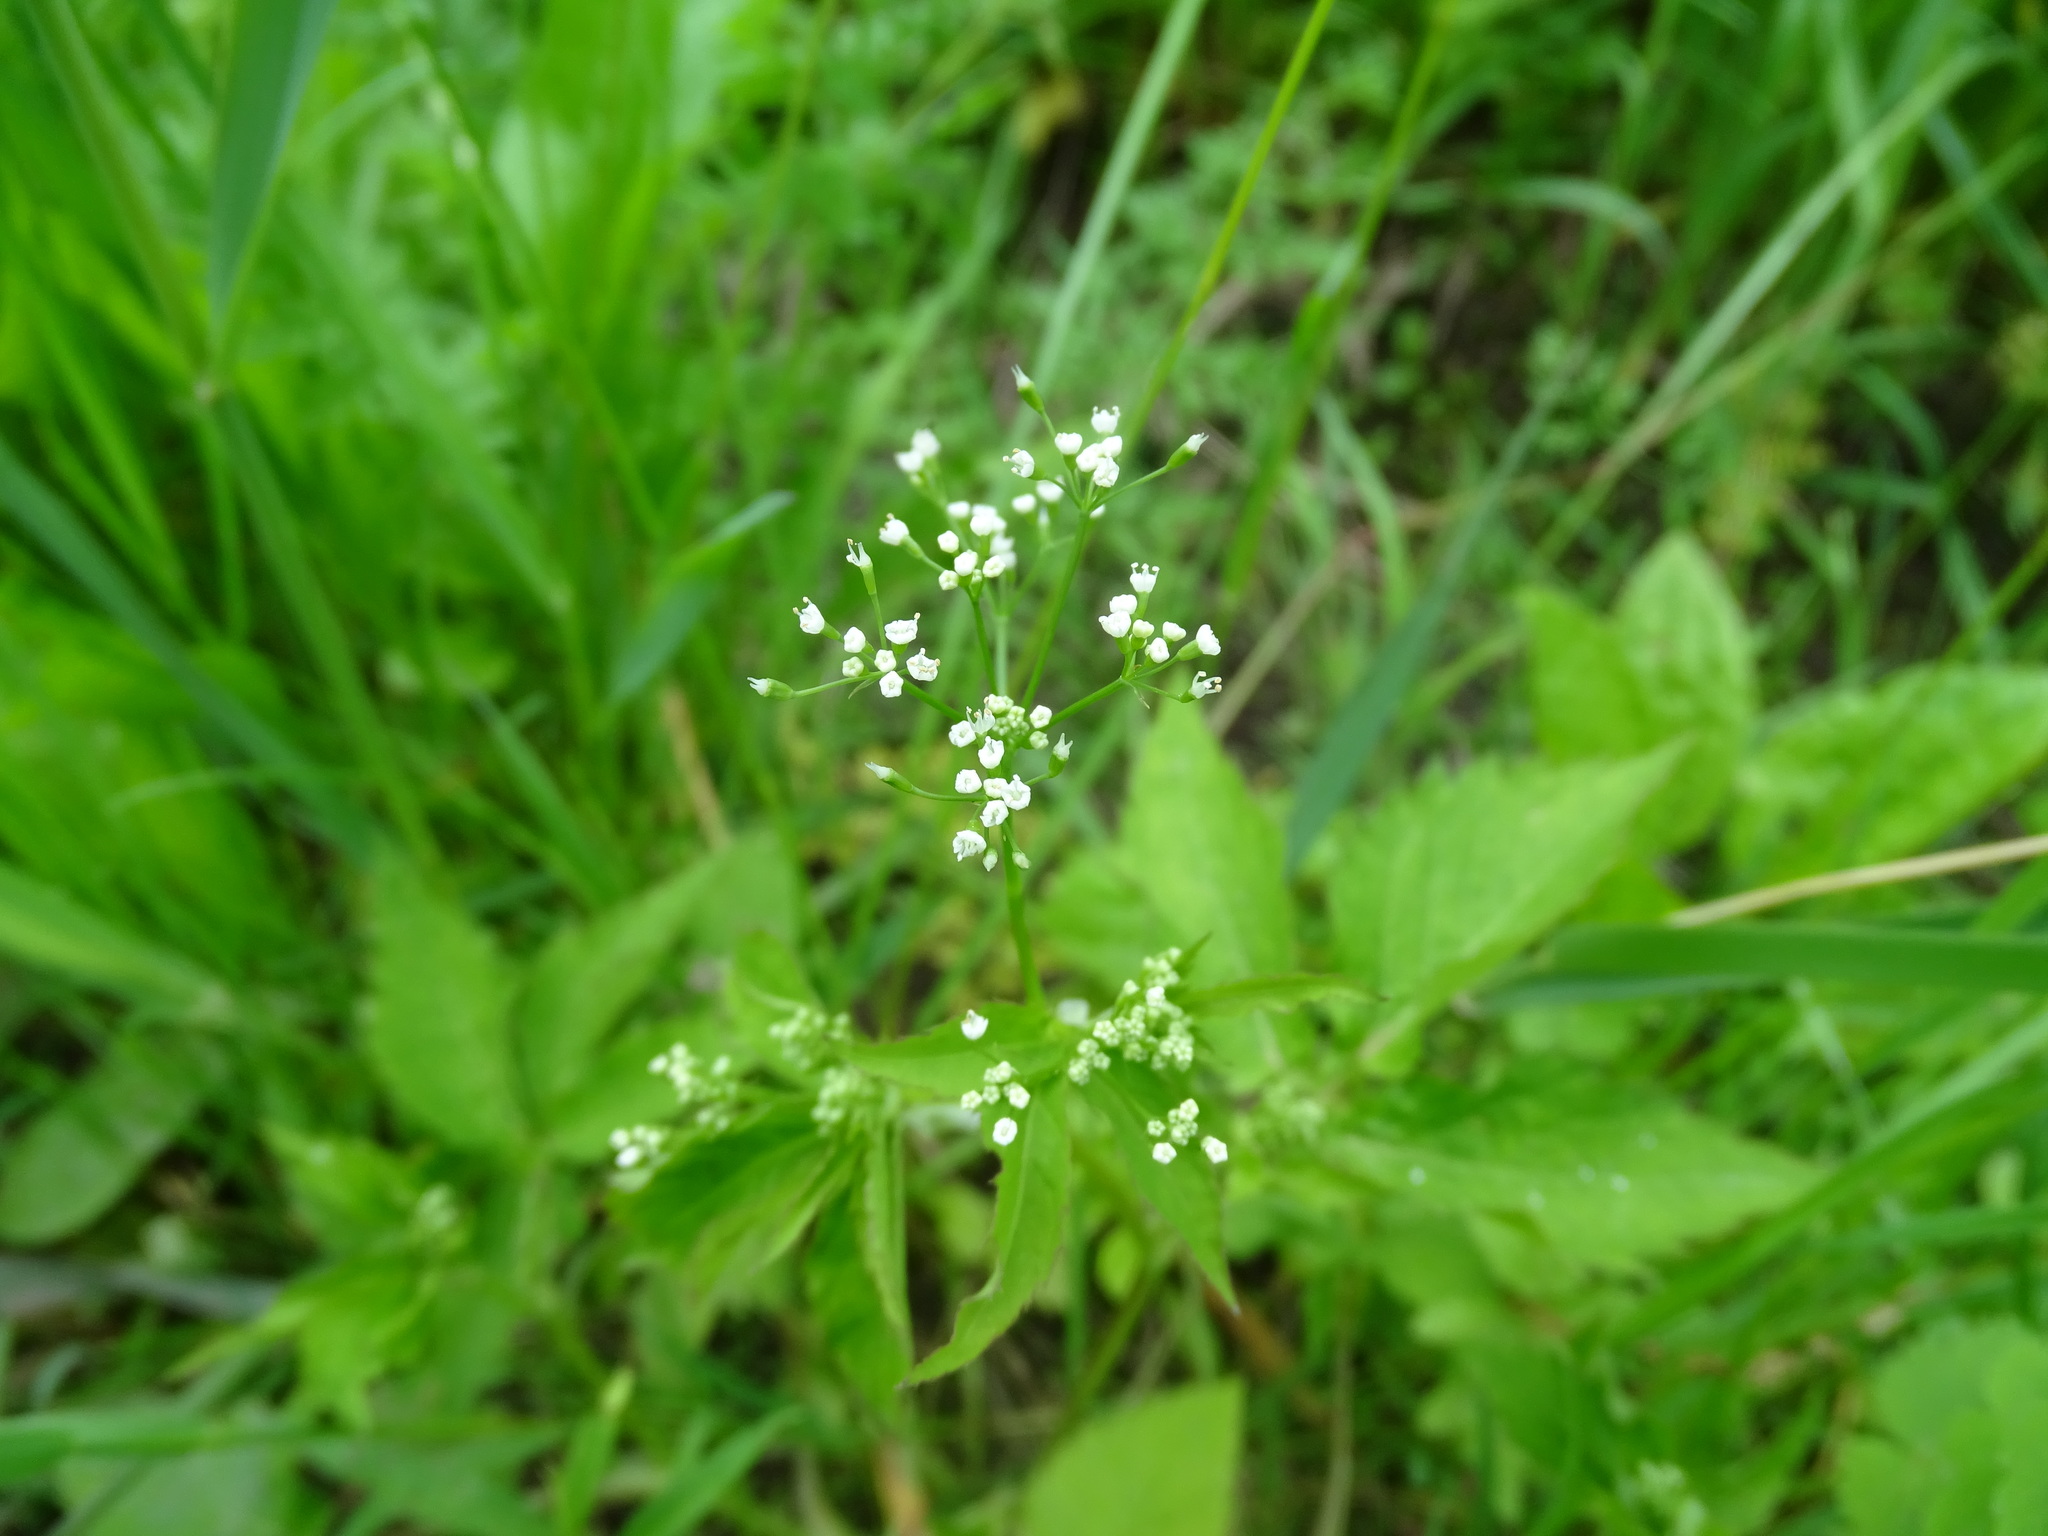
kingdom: Plantae
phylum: Tracheophyta
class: Magnoliopsida
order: Apiales
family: Apiaceae
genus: Cryptotaenia
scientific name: Cryptotaenia canadensis
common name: Honewort
